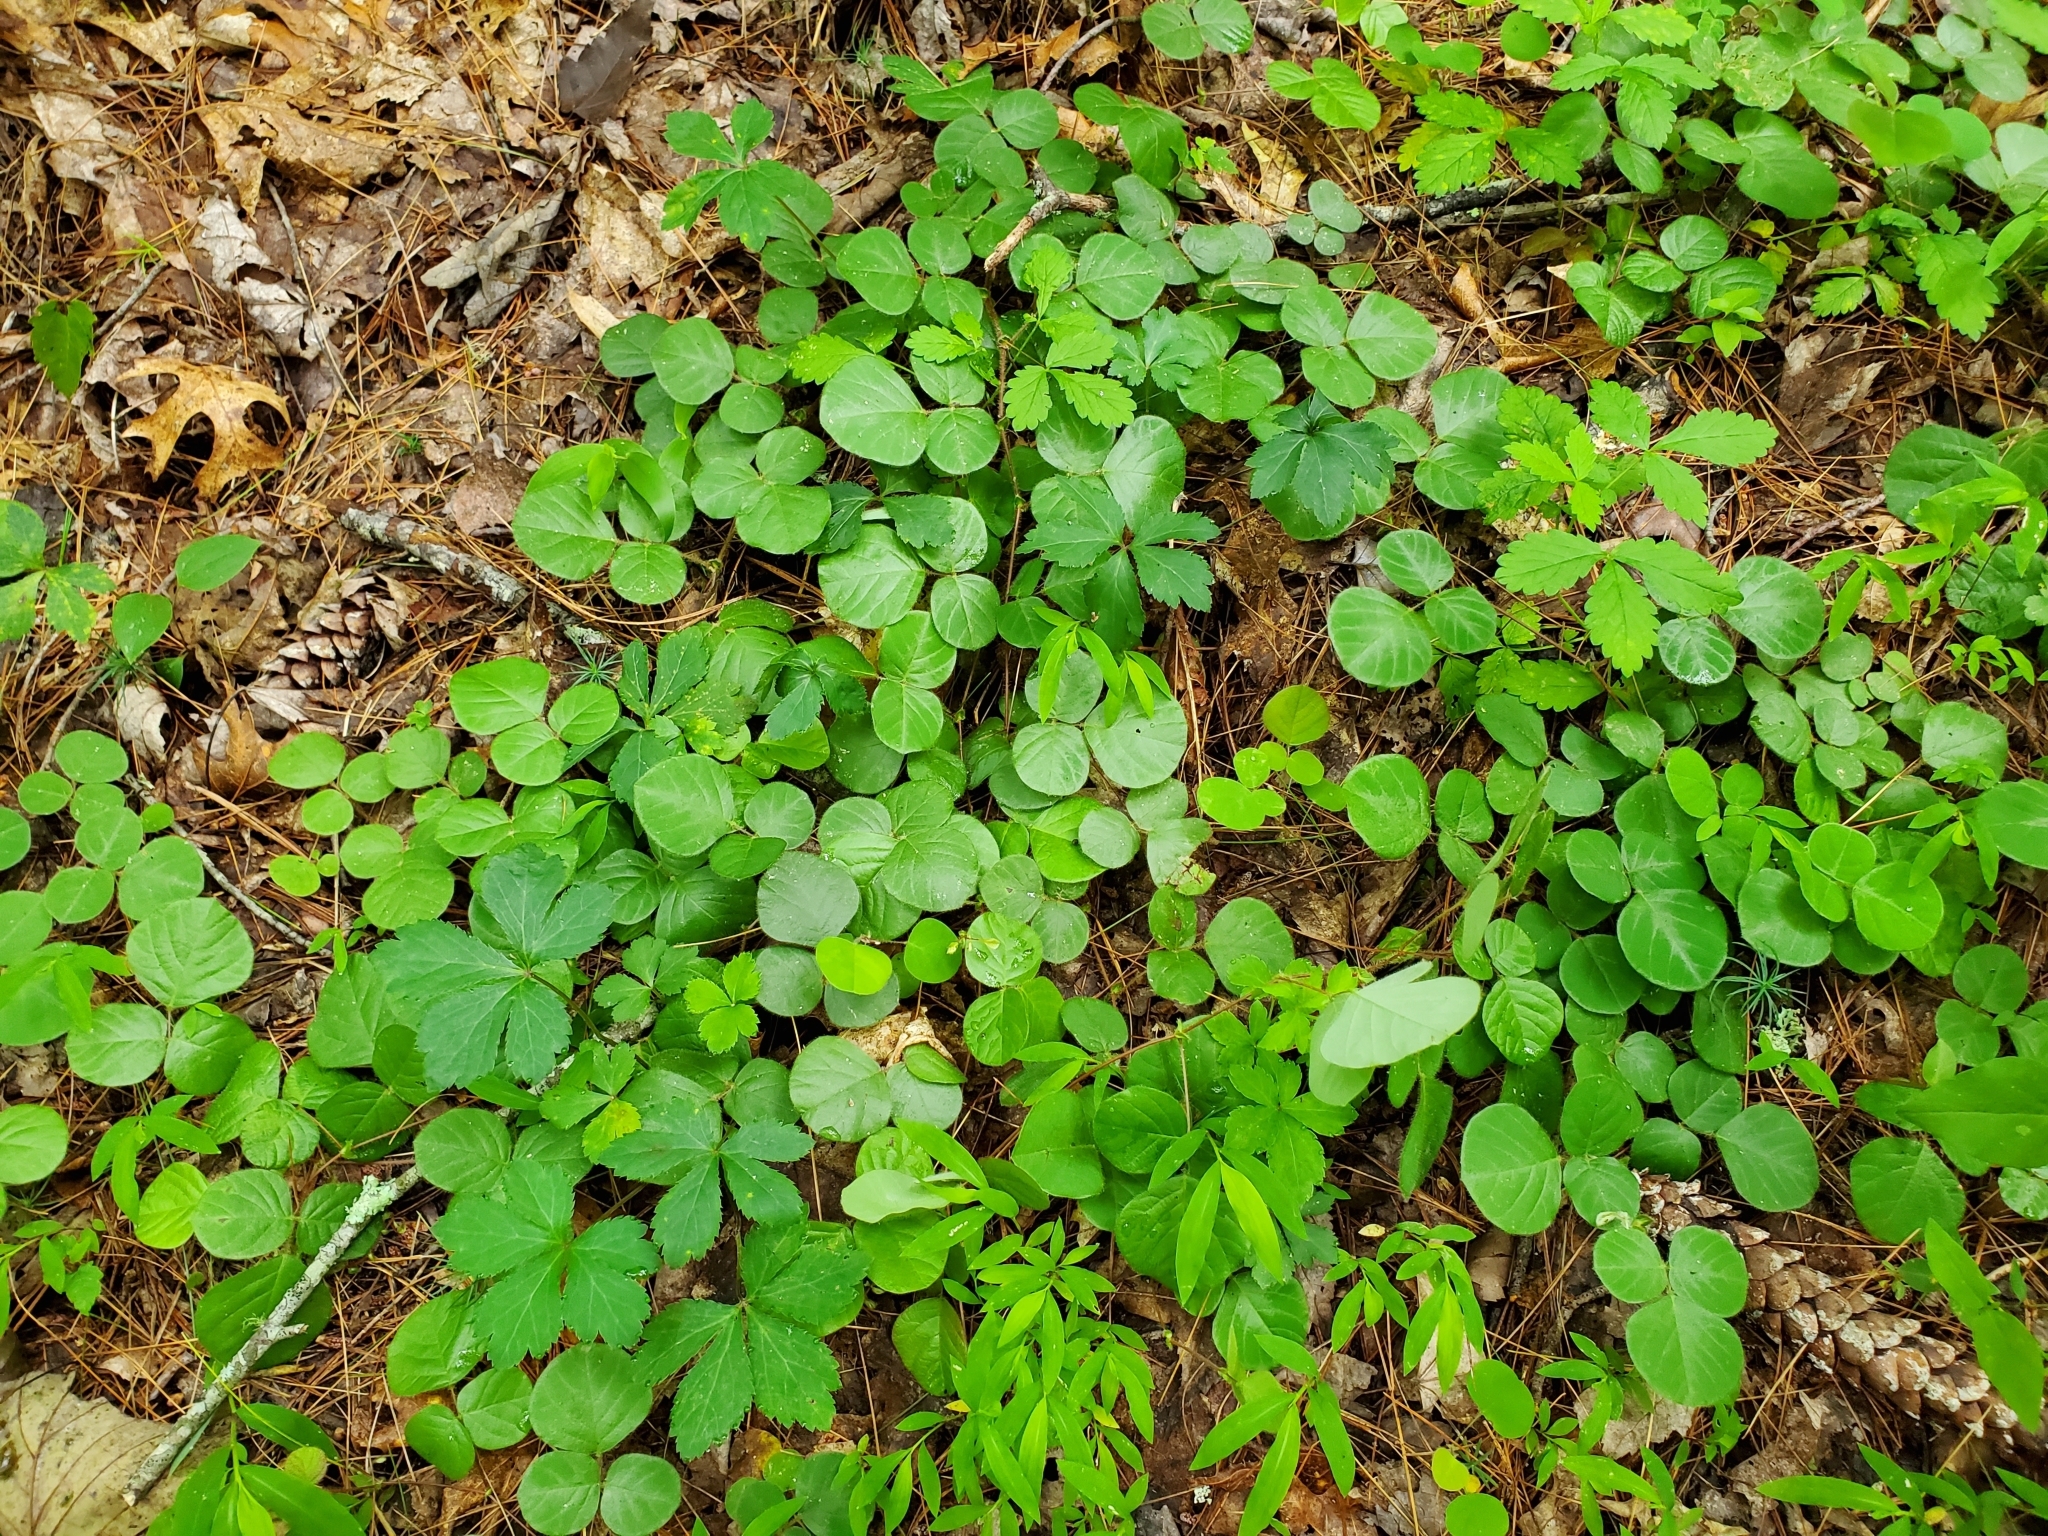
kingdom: Plantae
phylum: Tracheophyta
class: Magnoliopsida
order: Fabales
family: Fabaceae
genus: Desmodium
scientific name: Desmodium rotundifolium
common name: Dollarleaf
